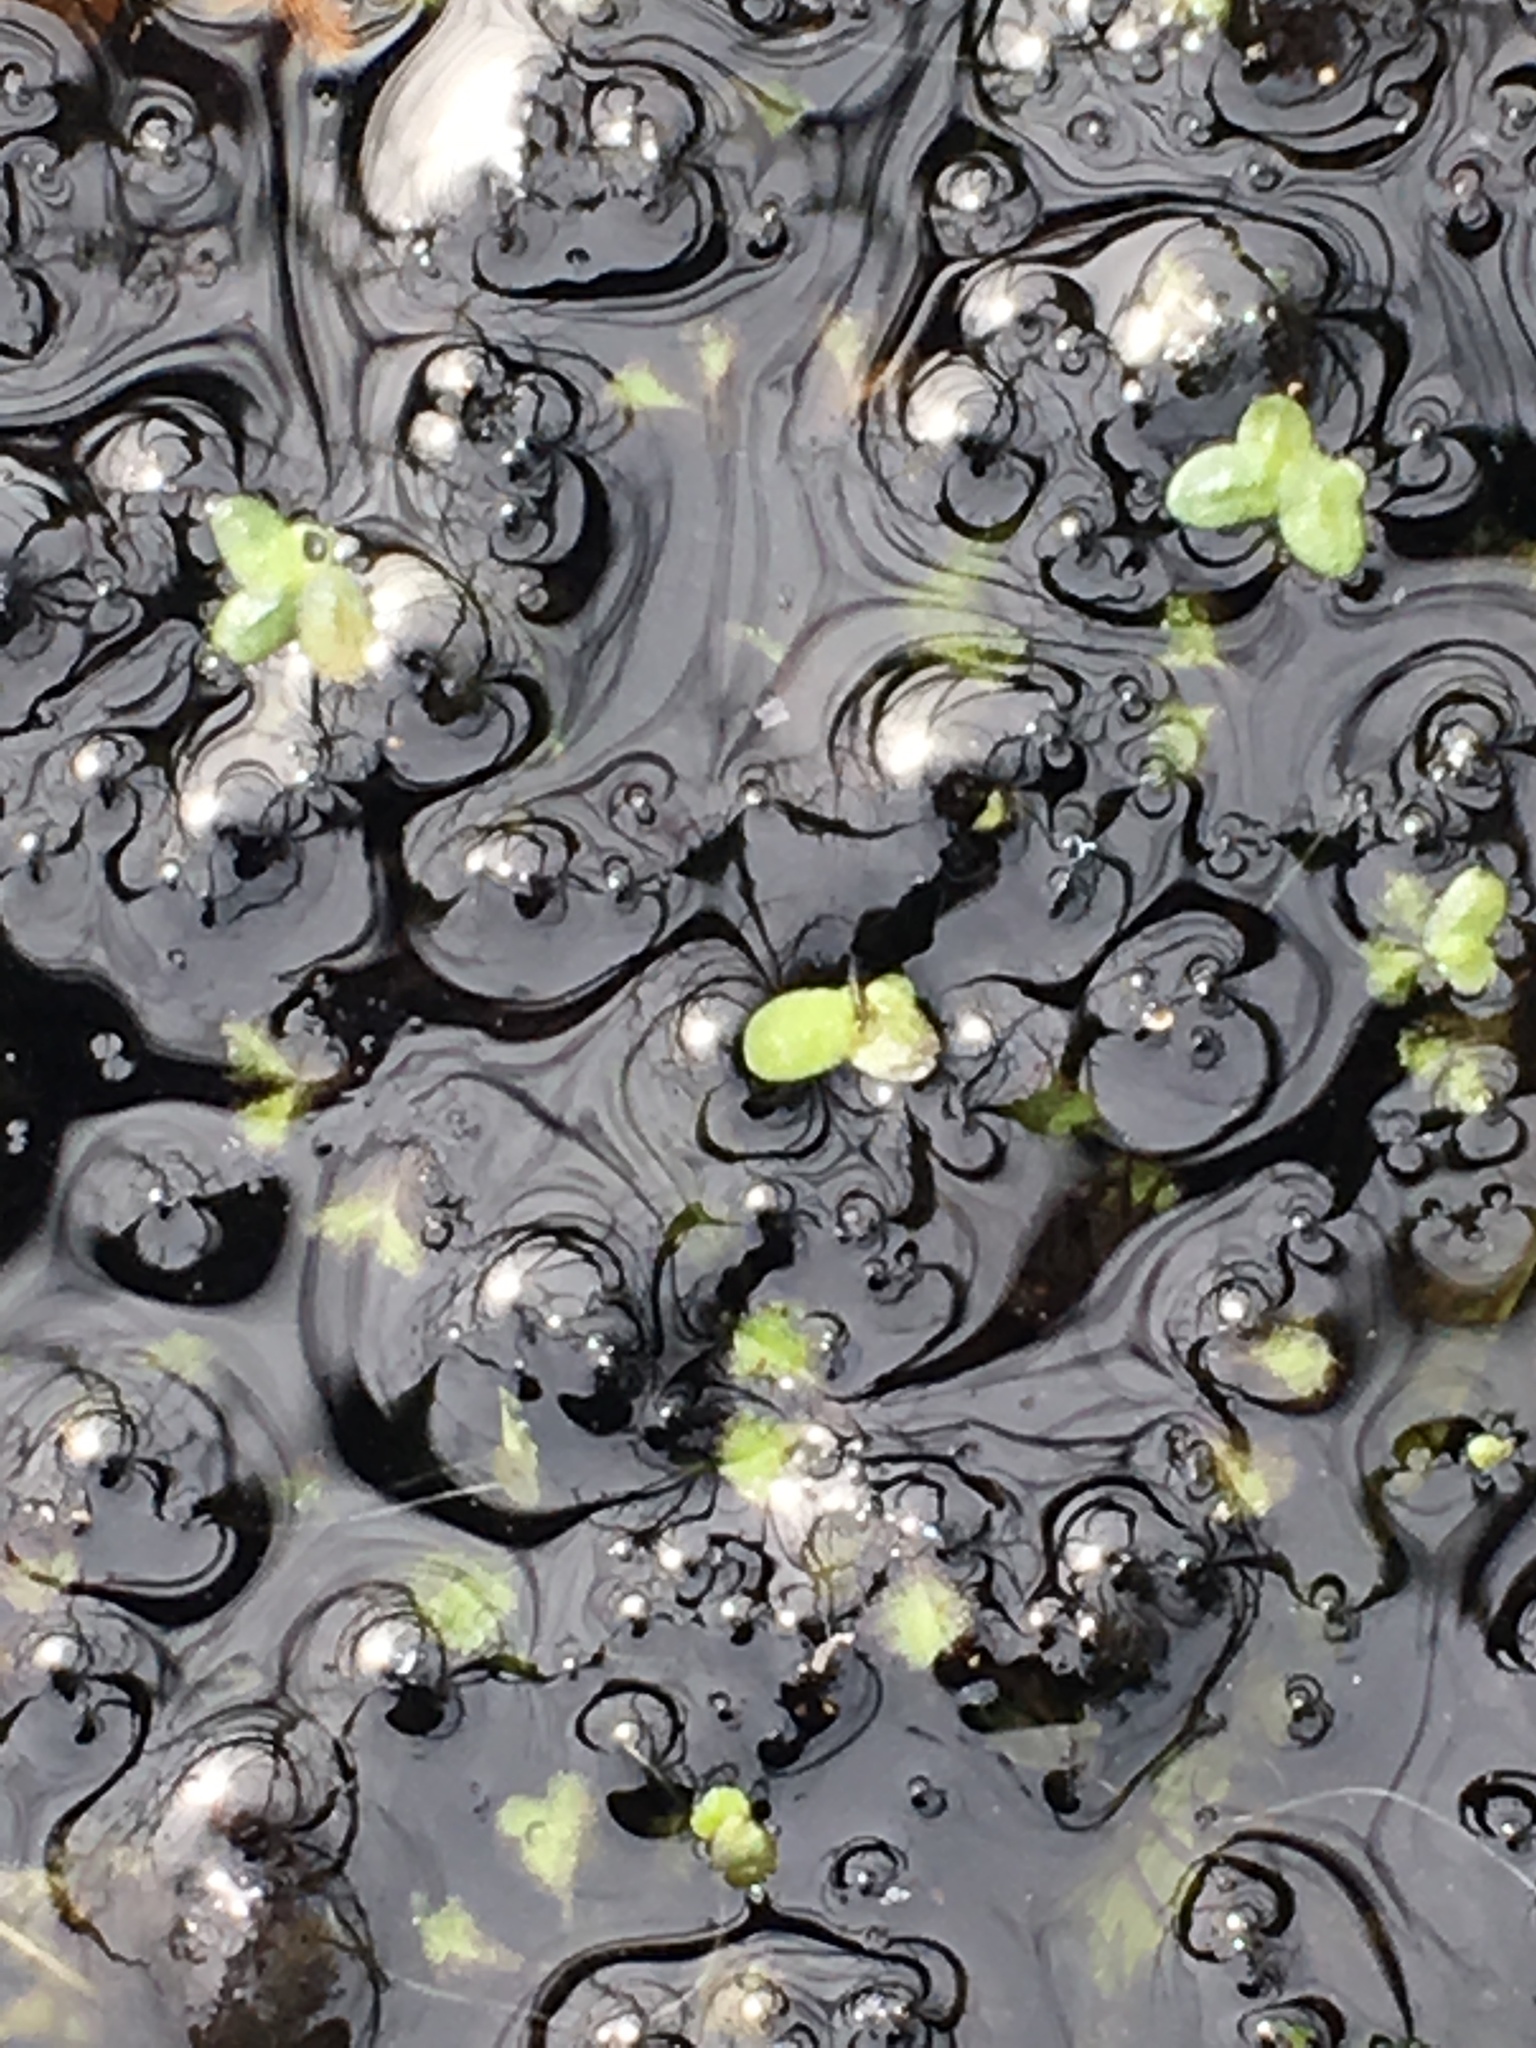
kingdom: Plantae
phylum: Tracheophyta
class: Liliopsida
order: Alismatales
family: Araceae
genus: Lemna
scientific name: Lemna minor
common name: Common duckweed
